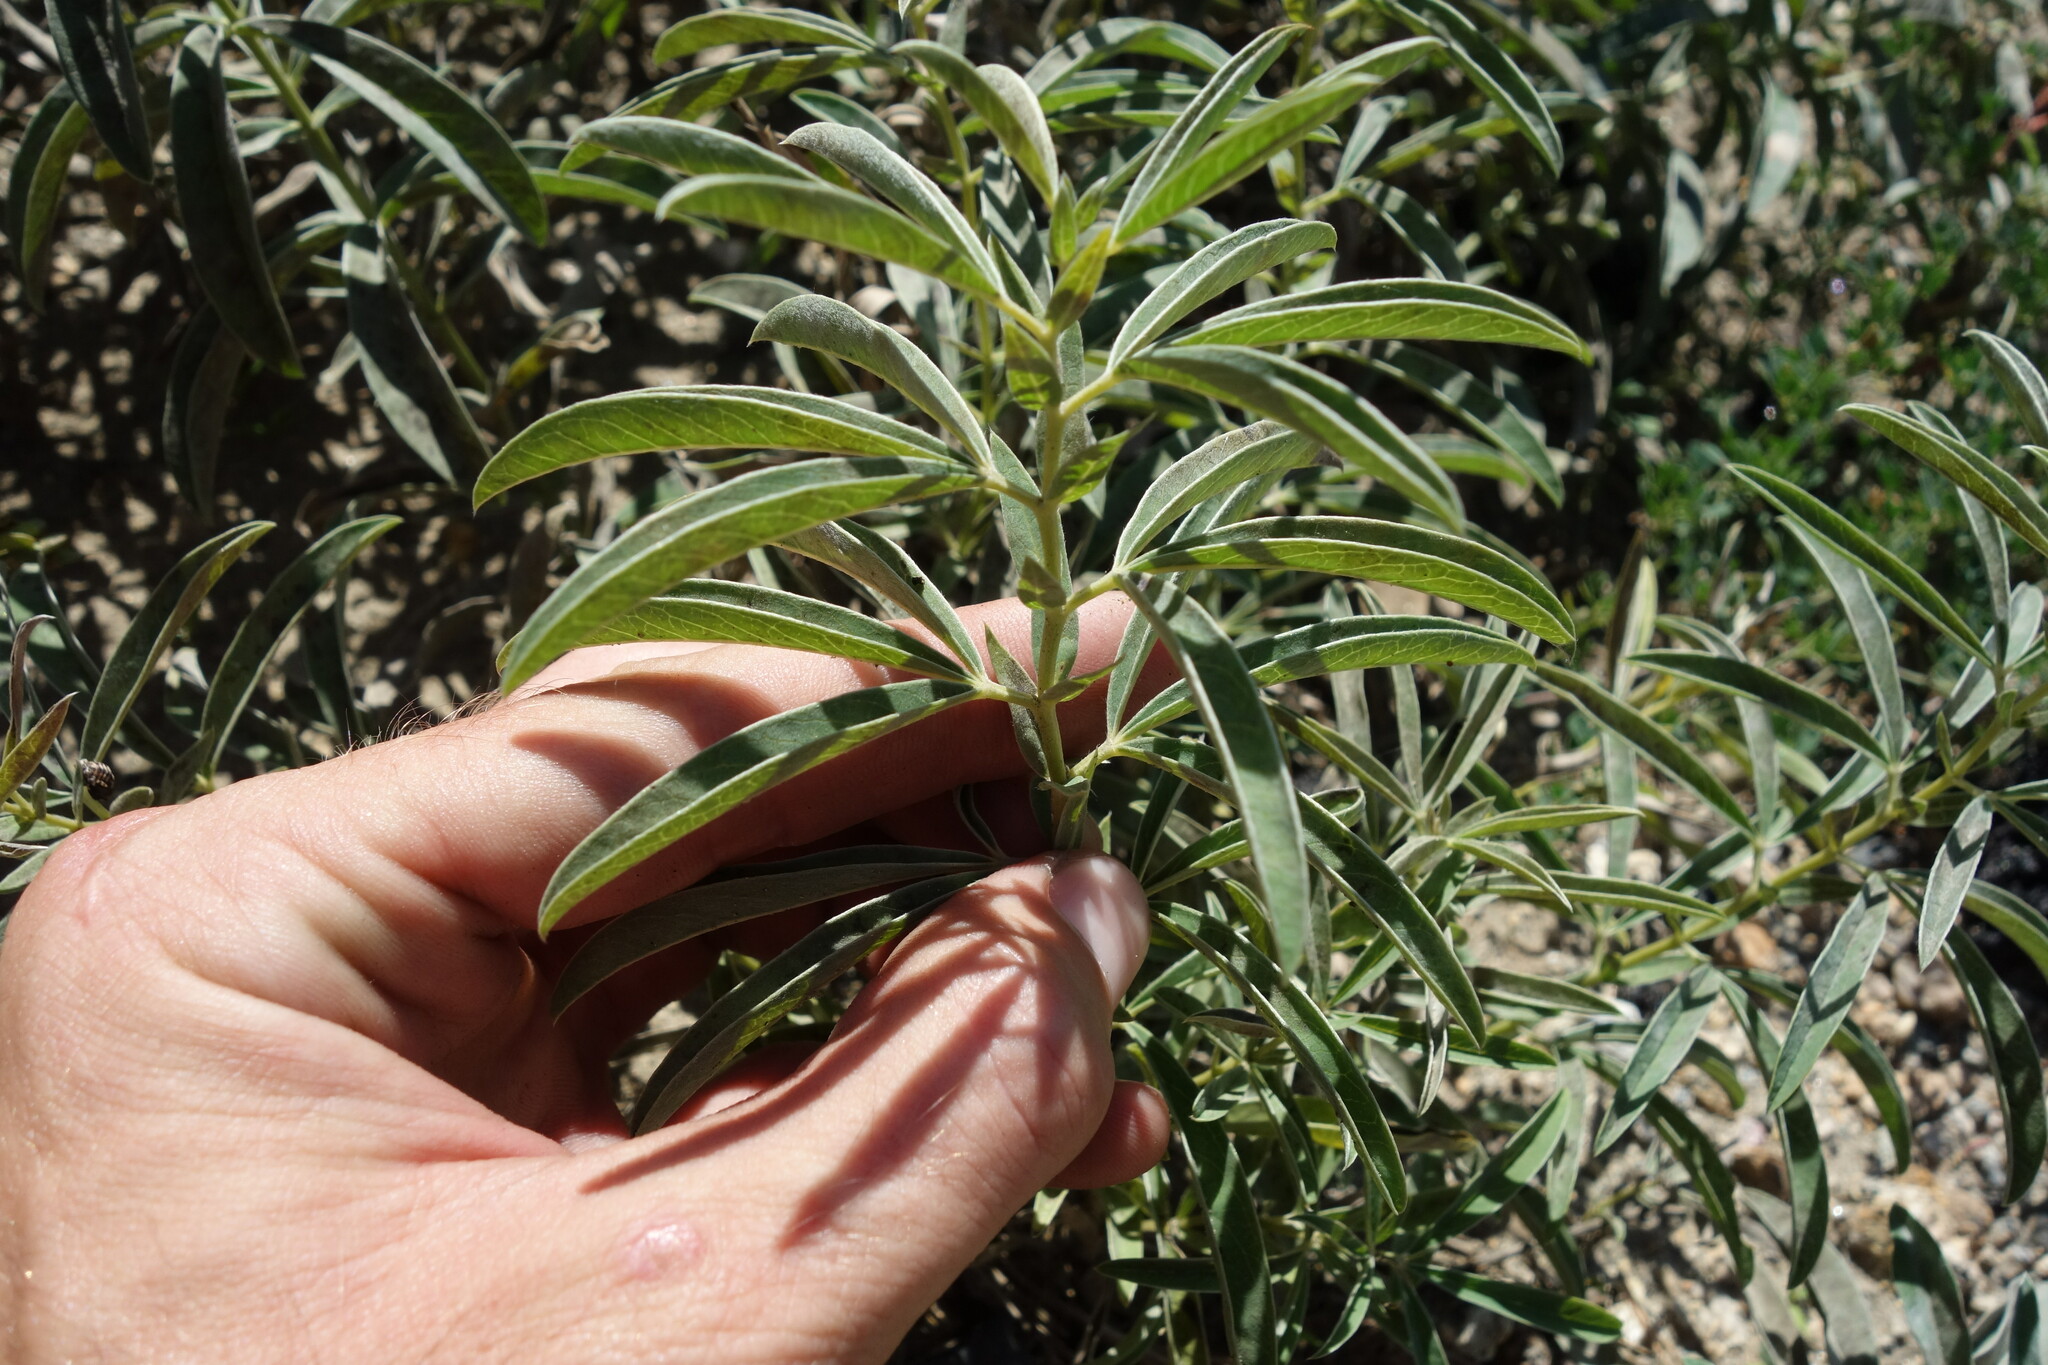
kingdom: Plantae
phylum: Tracheophyta
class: Magnoliopsida
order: Fabales
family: Fabaceae
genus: Thermopsis
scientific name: Thermopsis lanceolata
